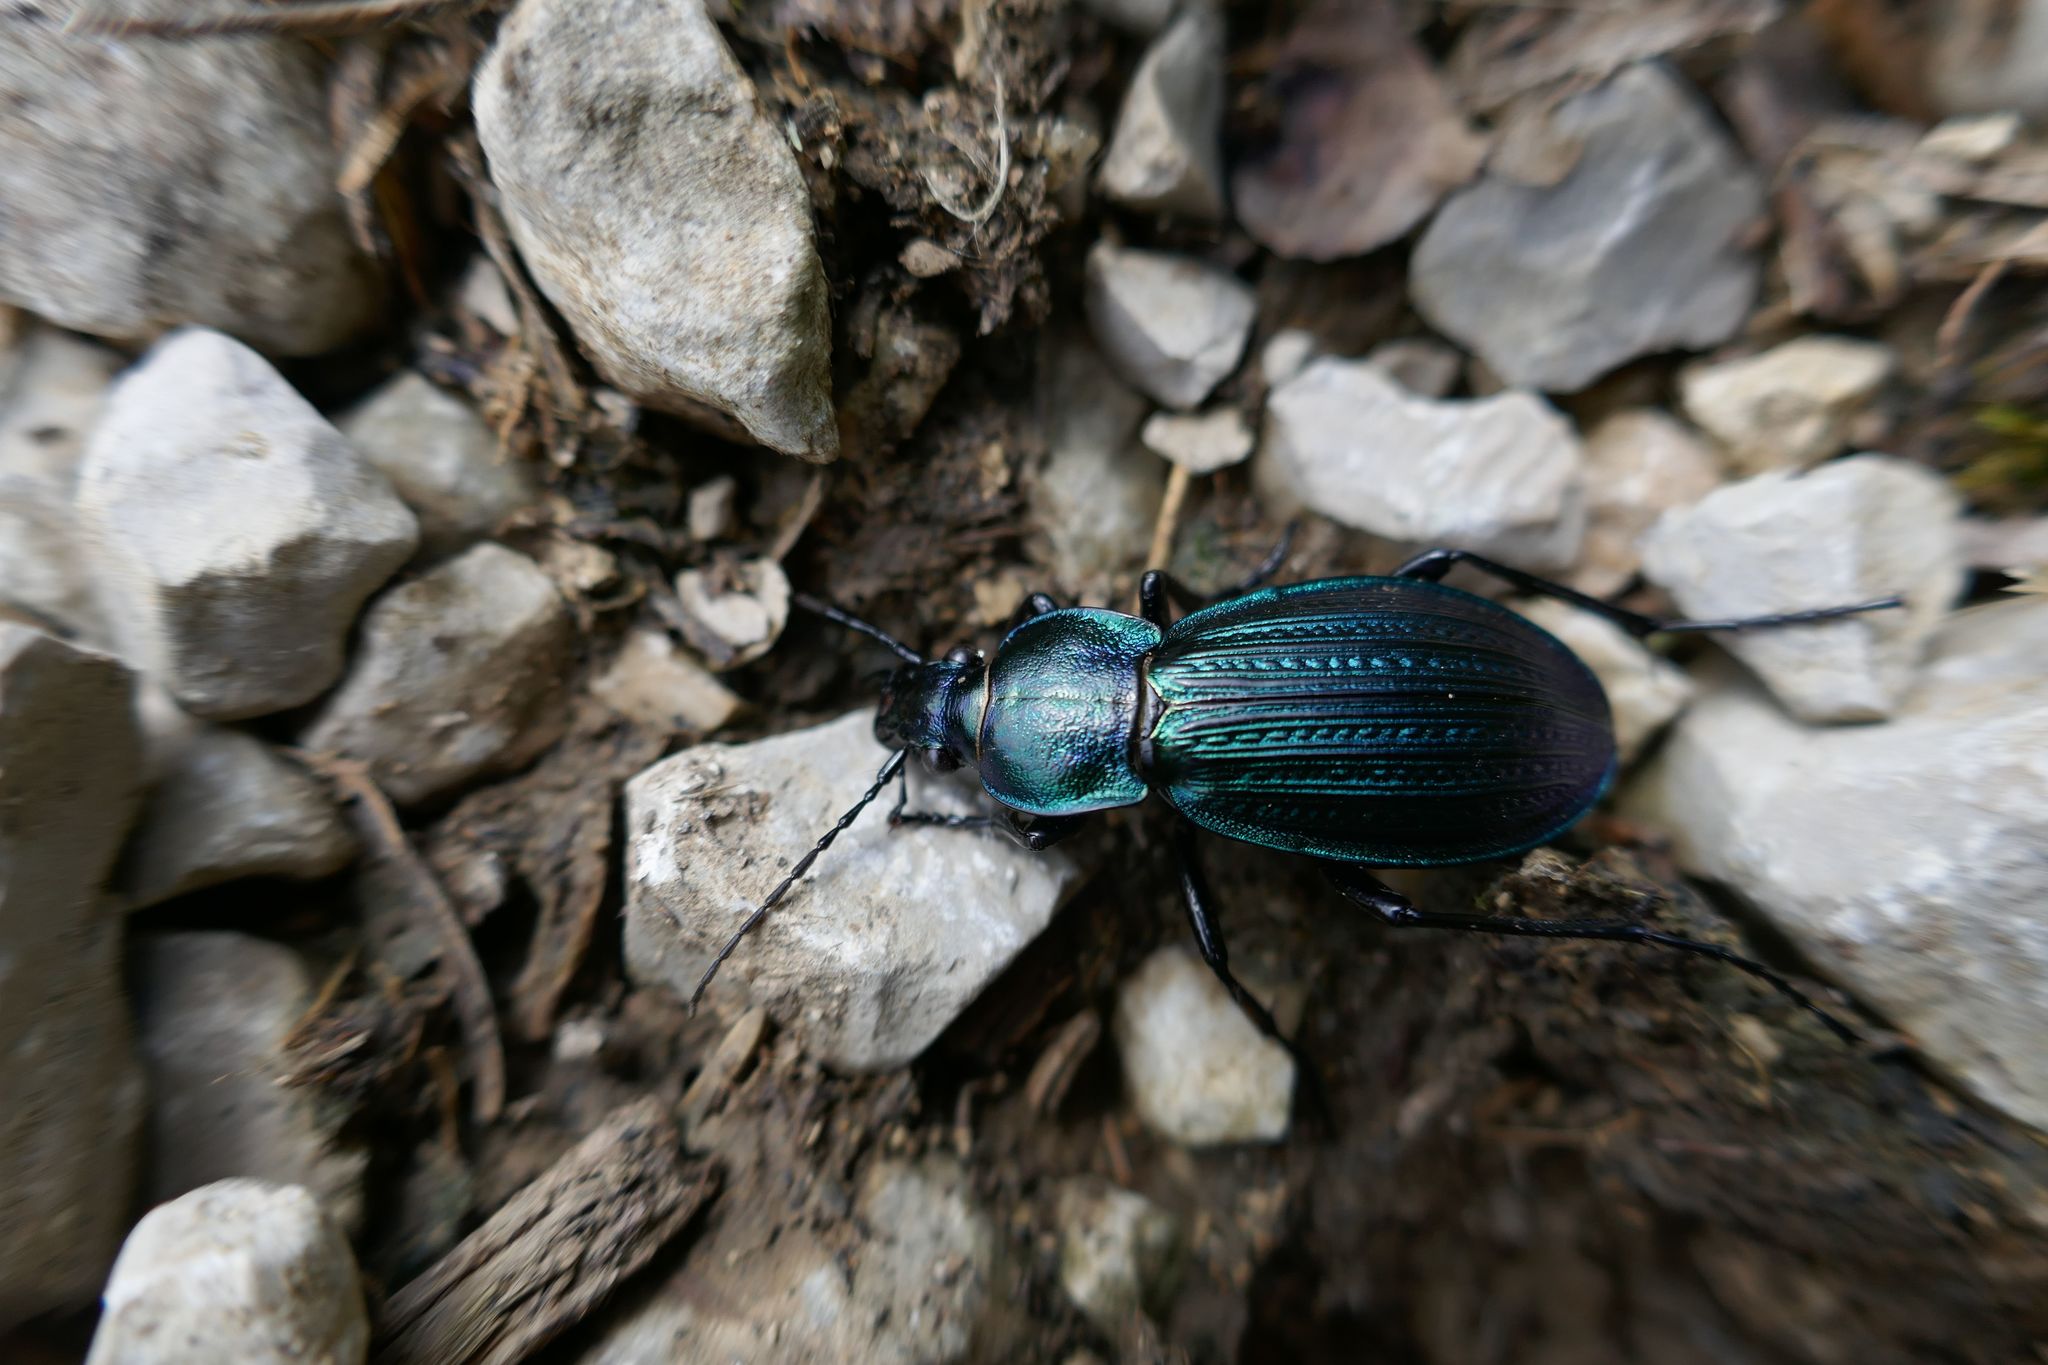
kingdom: Animalia
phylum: Arthropoda
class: Insecta
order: Coleoptera
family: Carabidae
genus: Carabus
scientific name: Carabus monilis
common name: Necklace ground beetle
